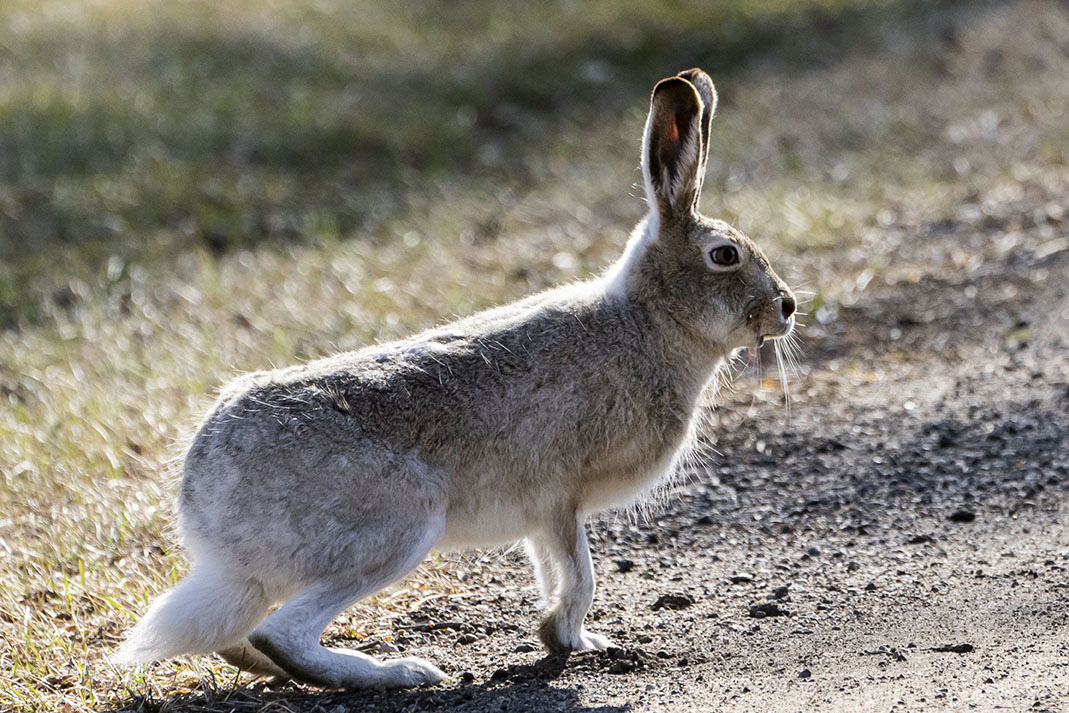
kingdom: Animalia
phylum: Chordata
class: Mammalia
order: Lagomorpha
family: Leporidae
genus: Lepus
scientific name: Lepus townsendii
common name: White-tailed jackrabbit
